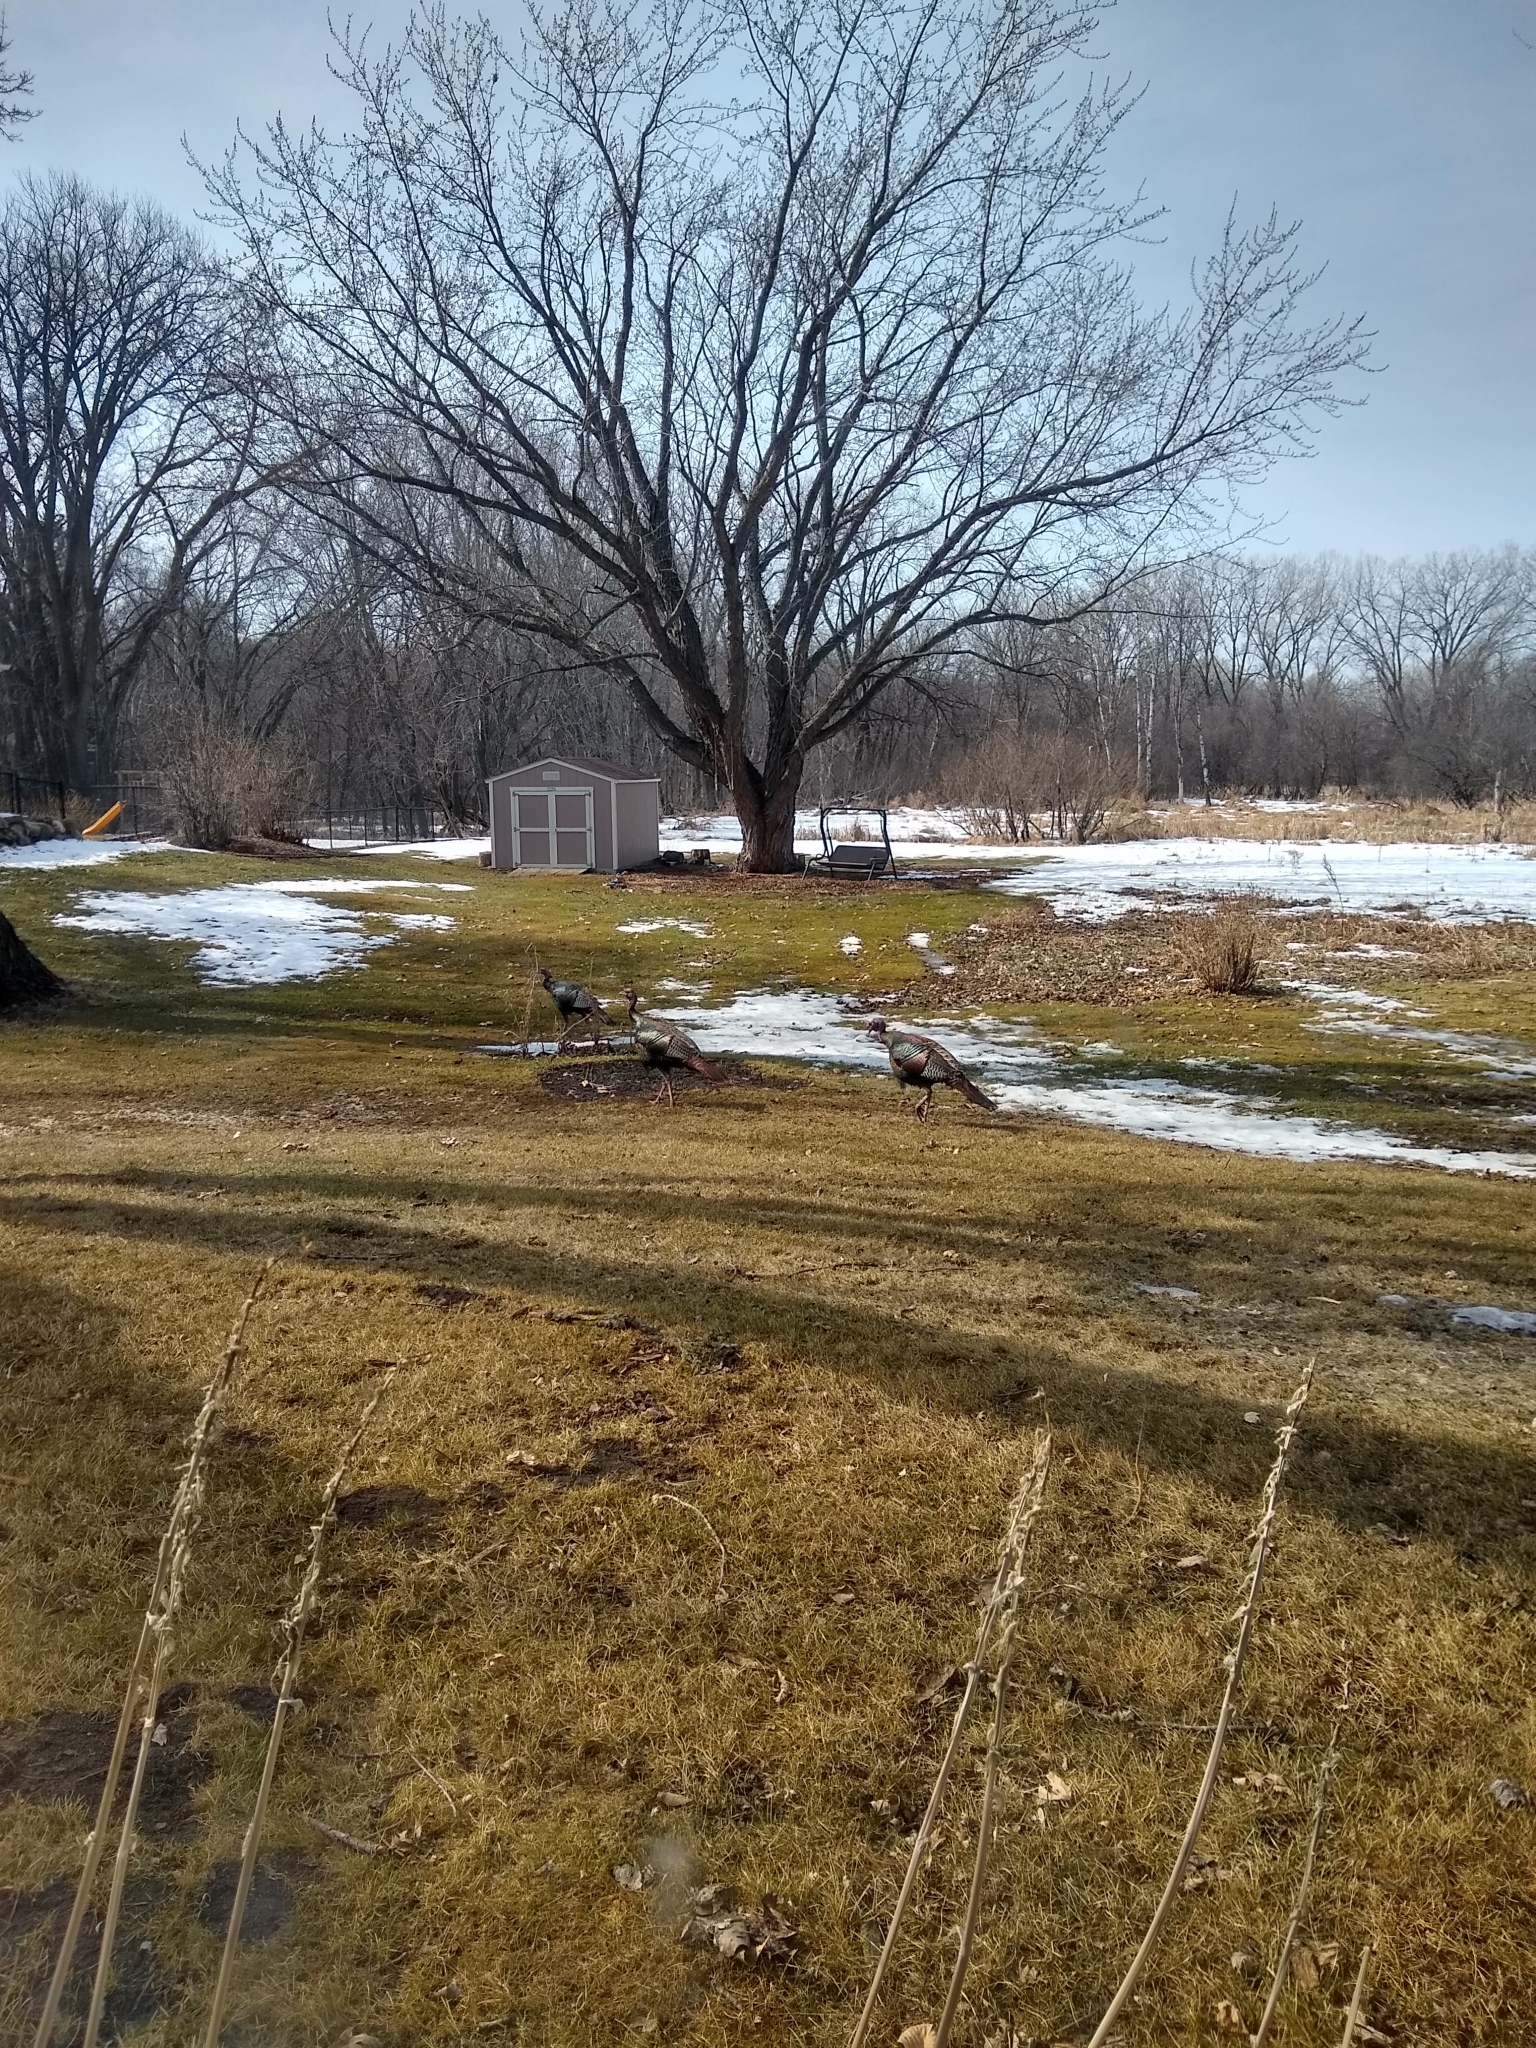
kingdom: Animalia
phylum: Chordata
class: Aves
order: Galliformes
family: Phasianidae
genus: Meleagris
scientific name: Meleagris gallopavo
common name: Wild turkey
